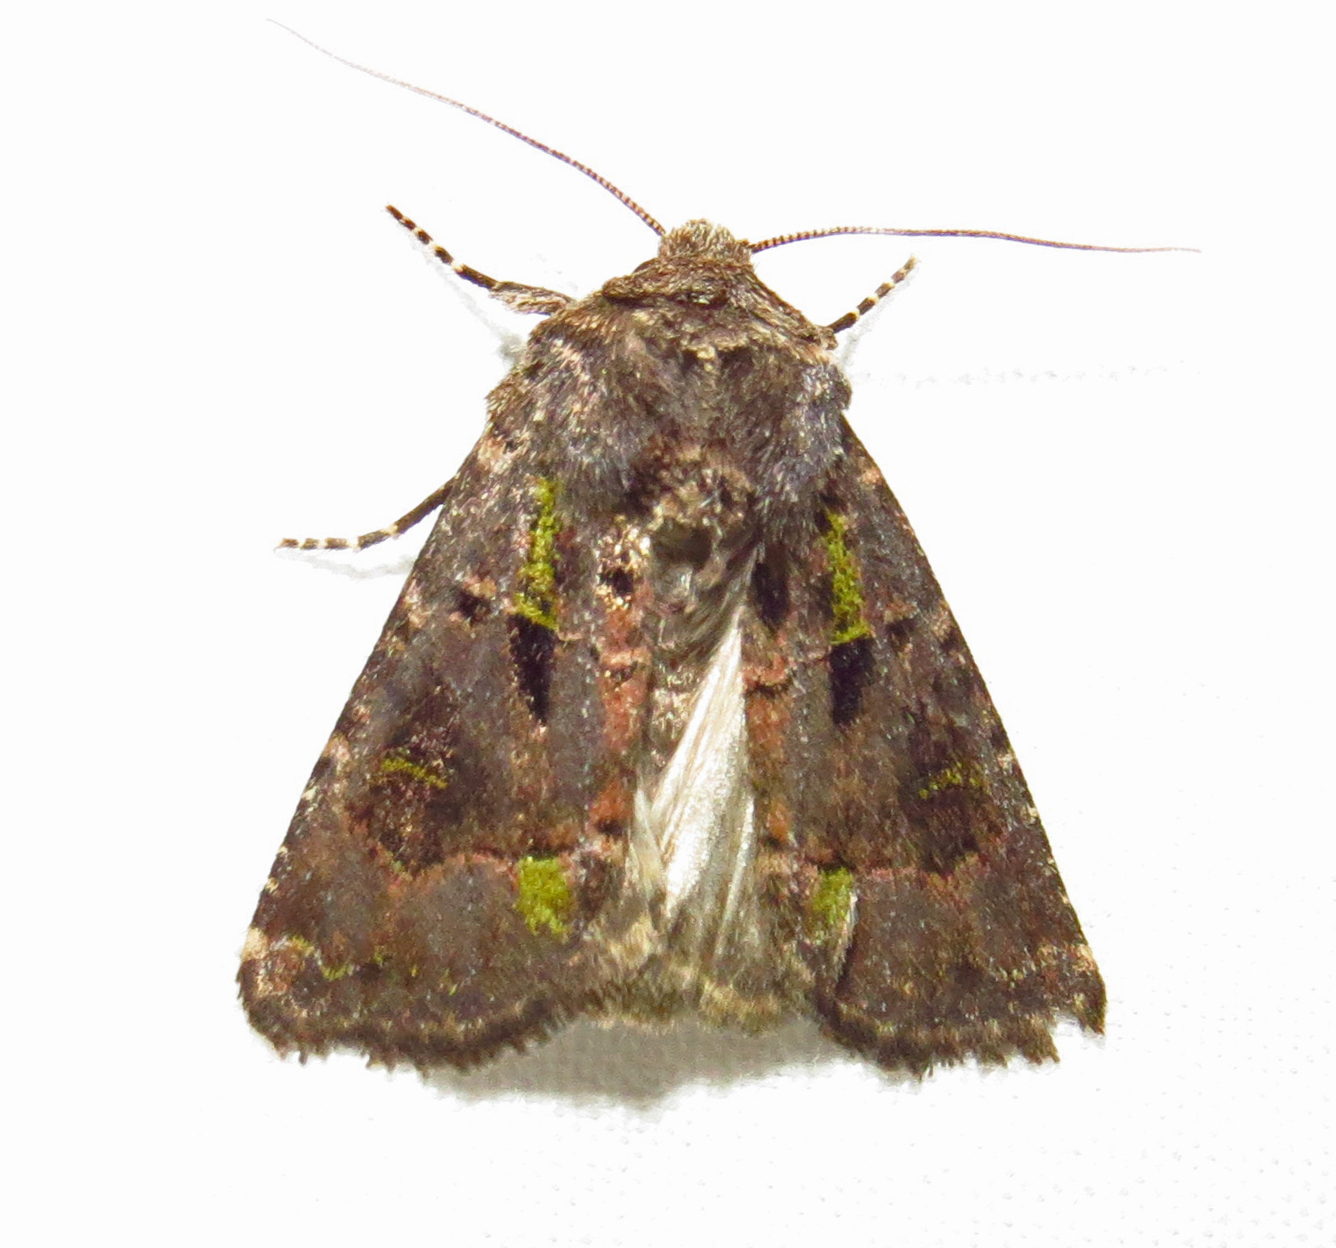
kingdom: Animalia
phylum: Arthropoda
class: Insecta
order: Lepidoptera
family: Noctuidae
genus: Lacinipolia
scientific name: Lacinipolia renigera
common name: Kidney-spotted minor
